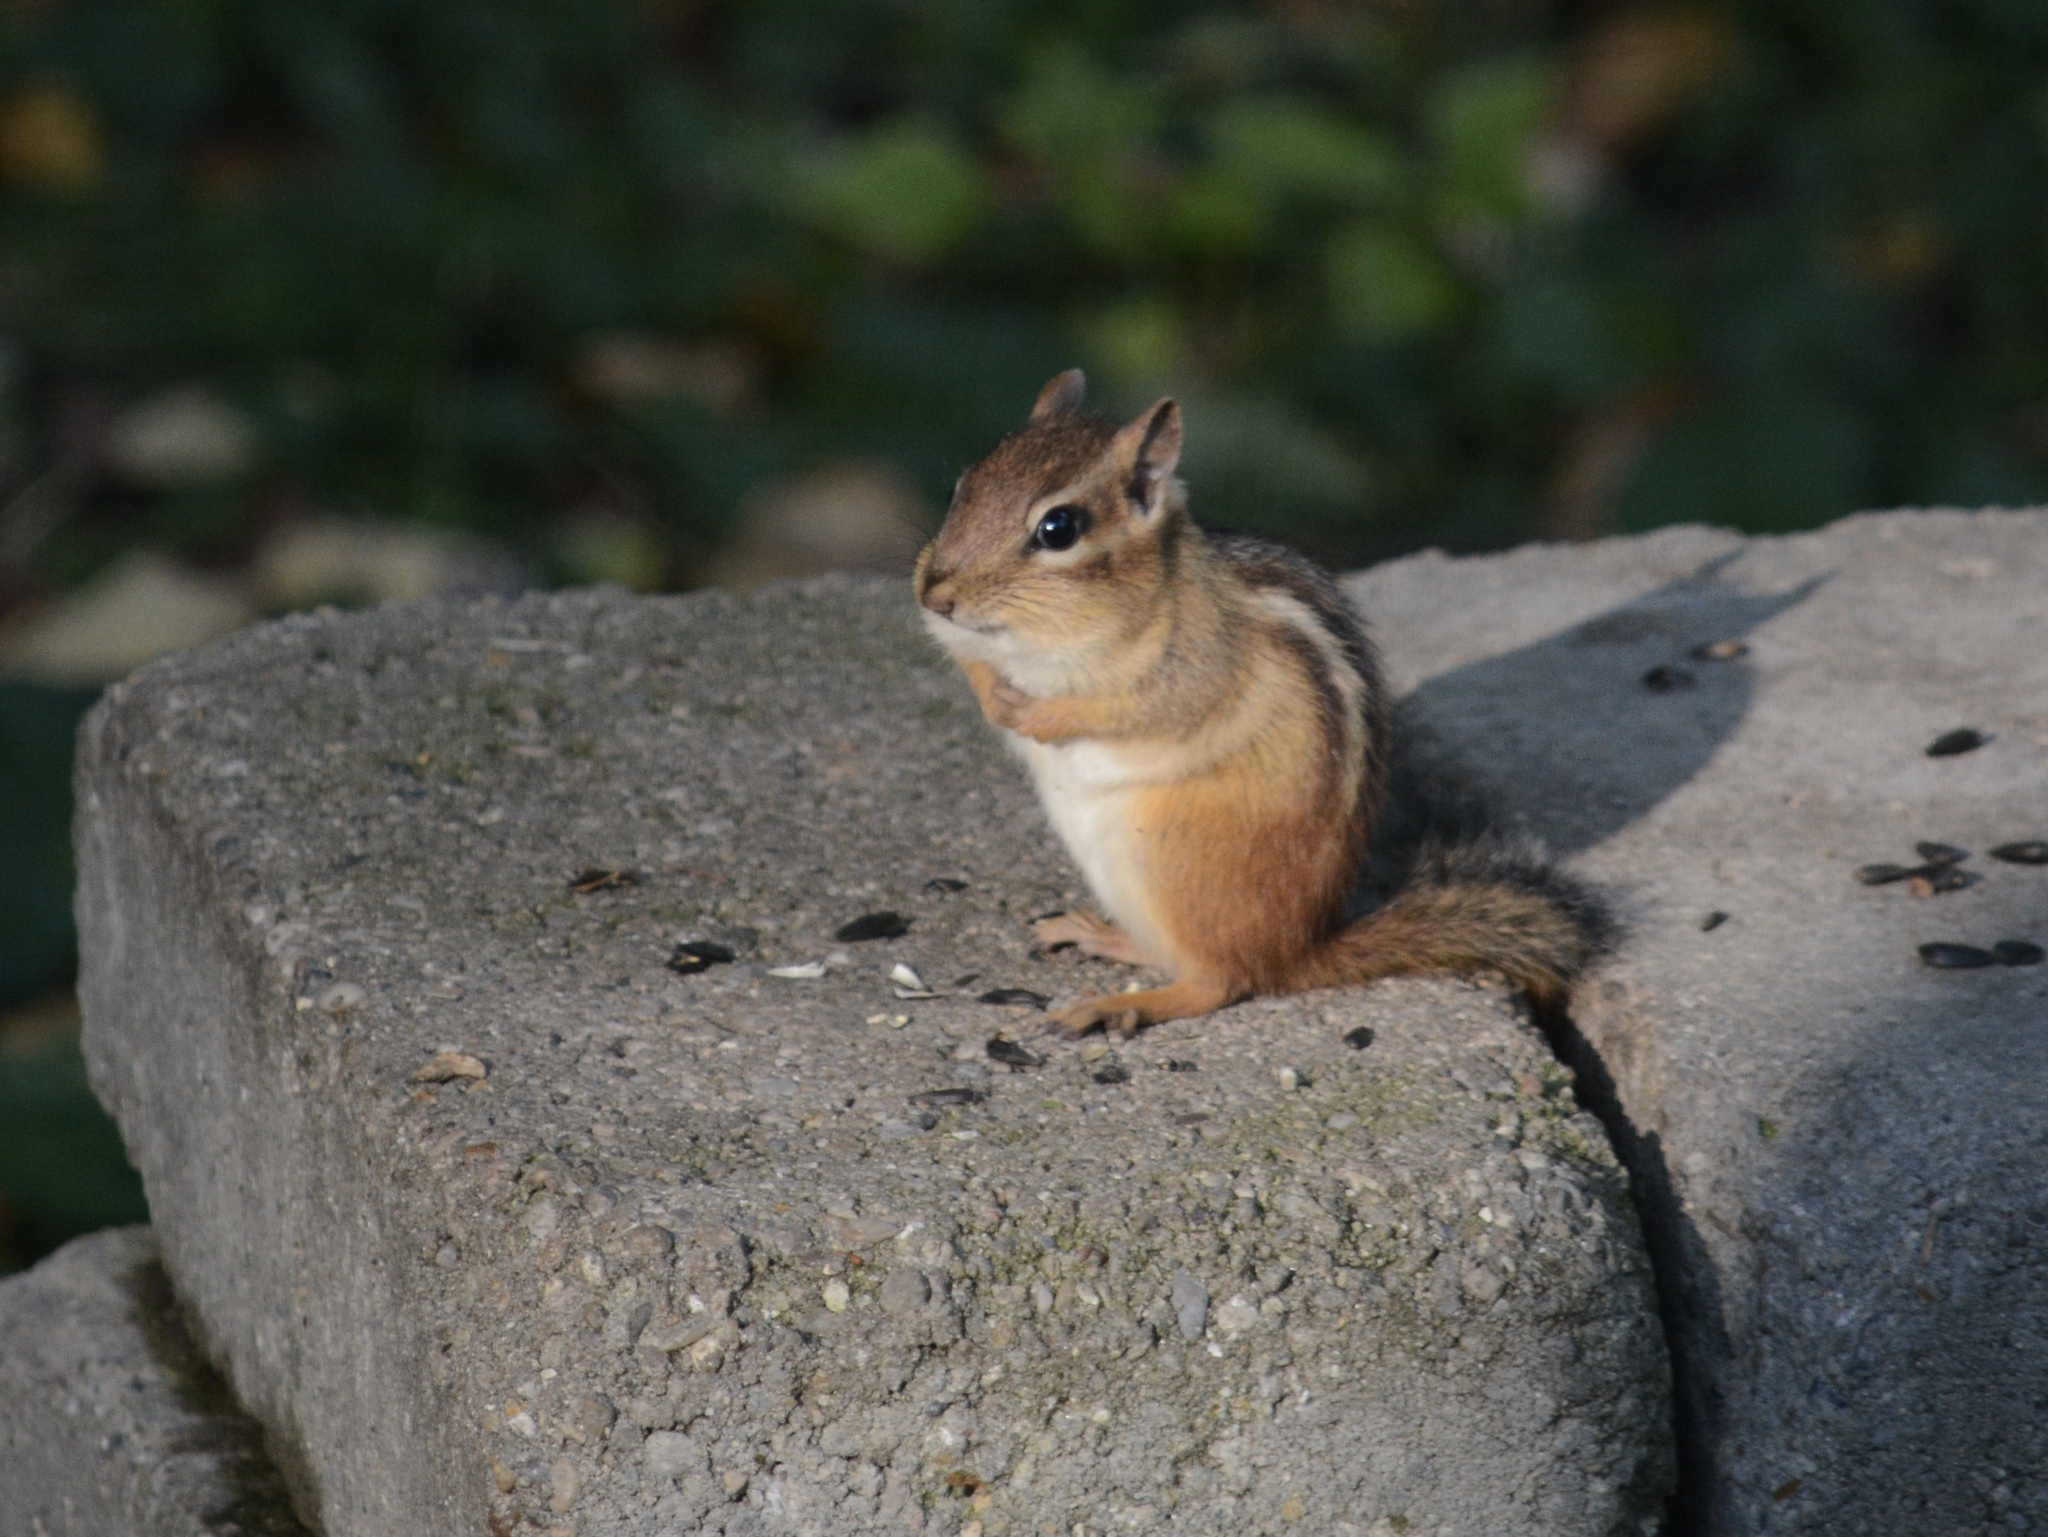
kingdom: Animalia
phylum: Chordata
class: Mammalia
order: Rodentia
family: Sciuridae
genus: Tamias
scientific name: Tamias striatus
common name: Eastern chipmunk
